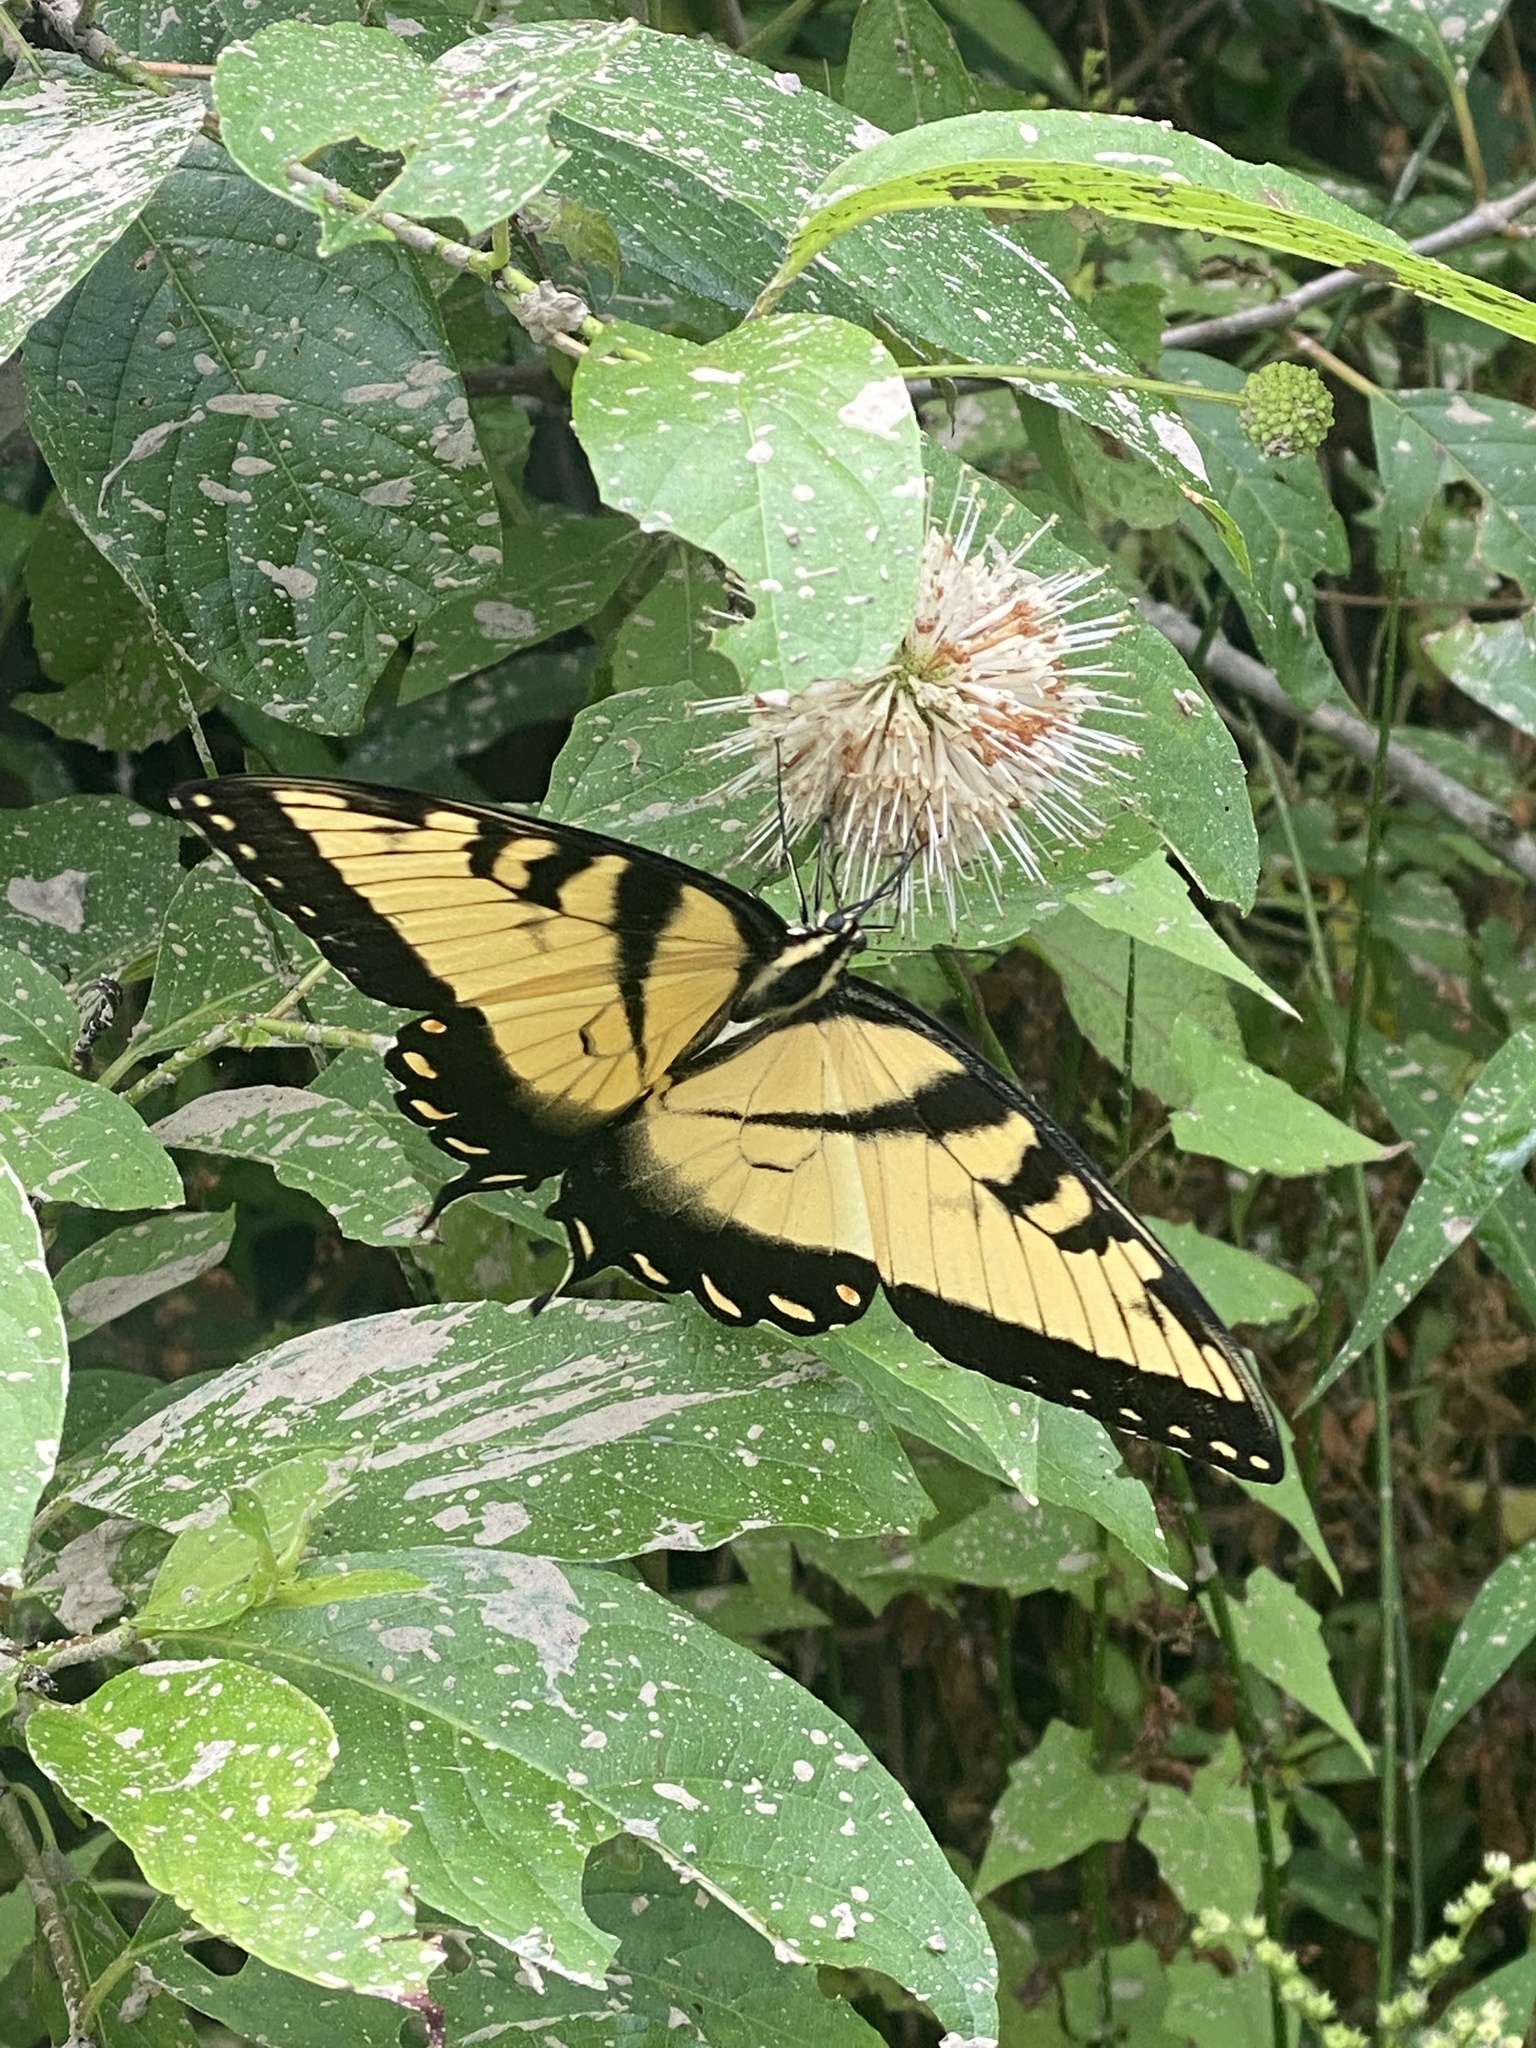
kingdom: Animalia
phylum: Arthropoda
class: Insecta
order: Lepidoptera
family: Papilionidae
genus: Papilio
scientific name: Papilio glaucus
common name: Tiger swallowtail
